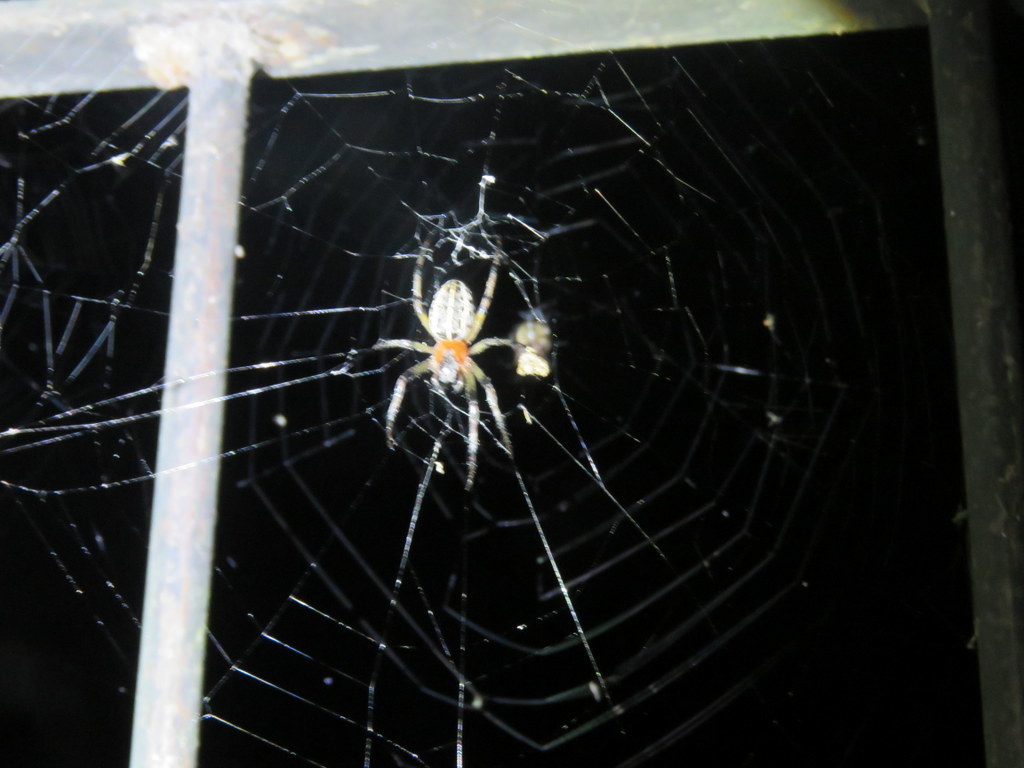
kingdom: Animalia
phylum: Arthropoda
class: Arachnida
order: Araneae
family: Araneidae
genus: Alpaida
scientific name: Alpaida veniliae
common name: Orb weavers
